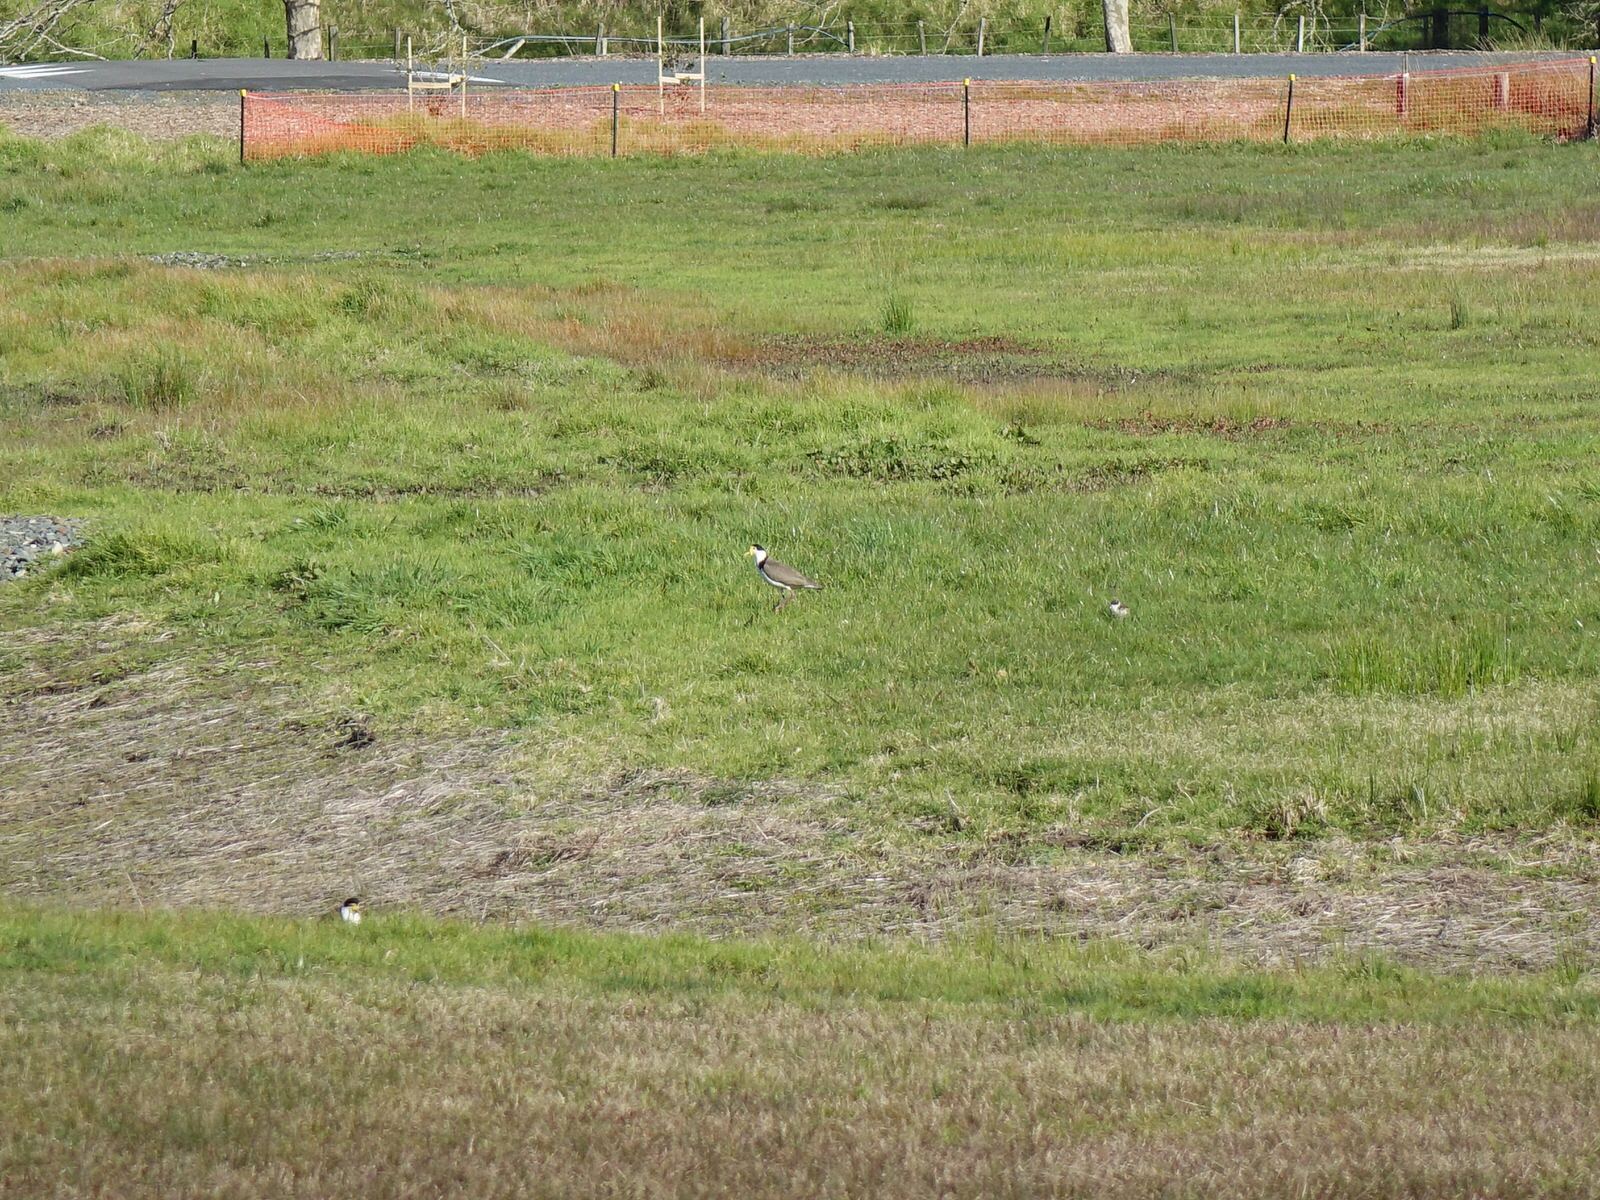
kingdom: Animalia
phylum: Chordata
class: Aves
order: Charadriiformes
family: Charadriidae
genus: Vanellus
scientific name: Vanellus miles
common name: Masked lapwing
